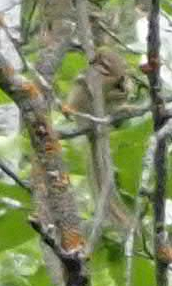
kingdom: Animalia
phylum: Chordata
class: Mammalia
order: Rodentia
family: Sciuridae
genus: Tamias
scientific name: Tamias striatus
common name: Eastern chipmunk
